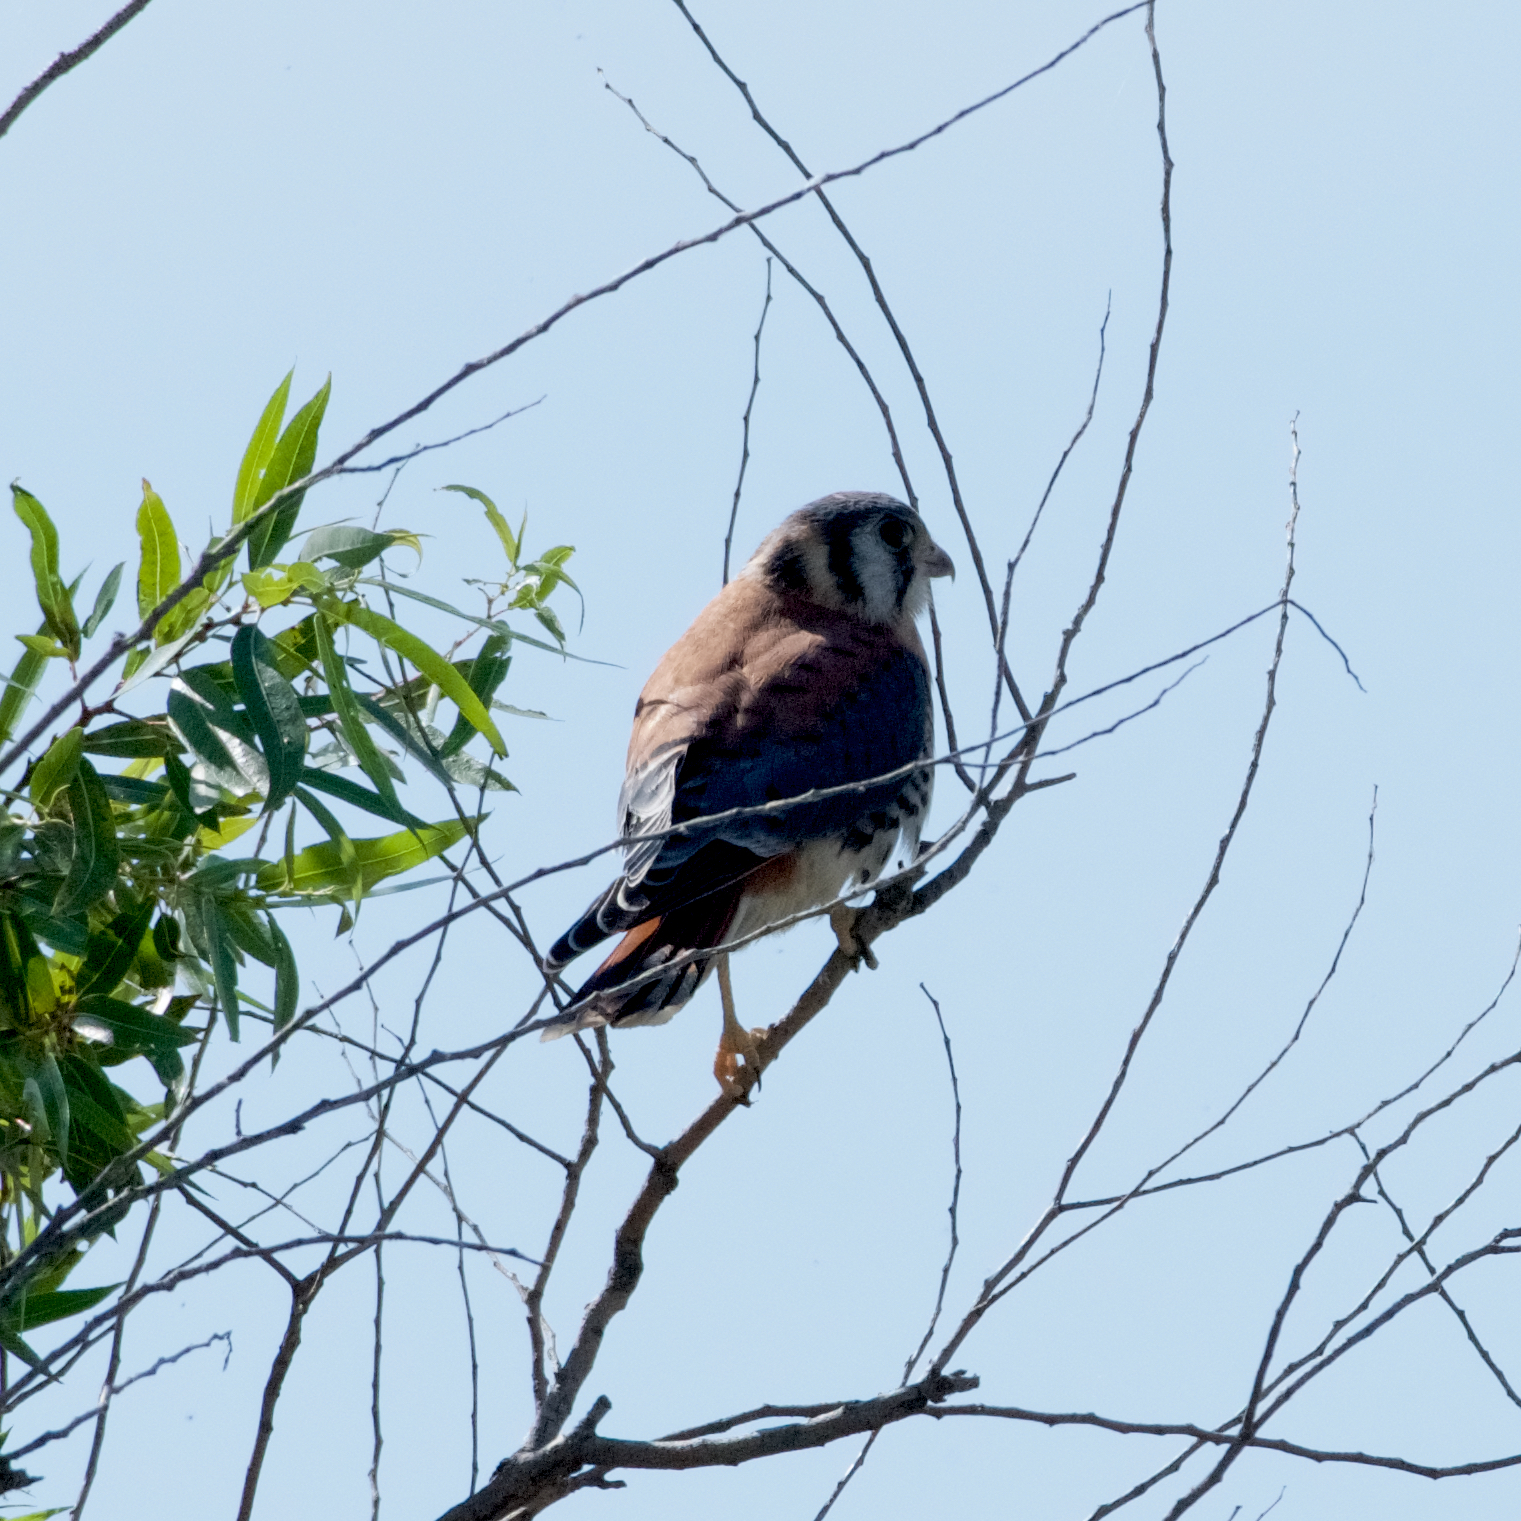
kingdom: Animalia
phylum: Chordata
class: Aves
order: Falconiformes
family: Falconidae
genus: Falco
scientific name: Falco sparverius
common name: American kestrel
